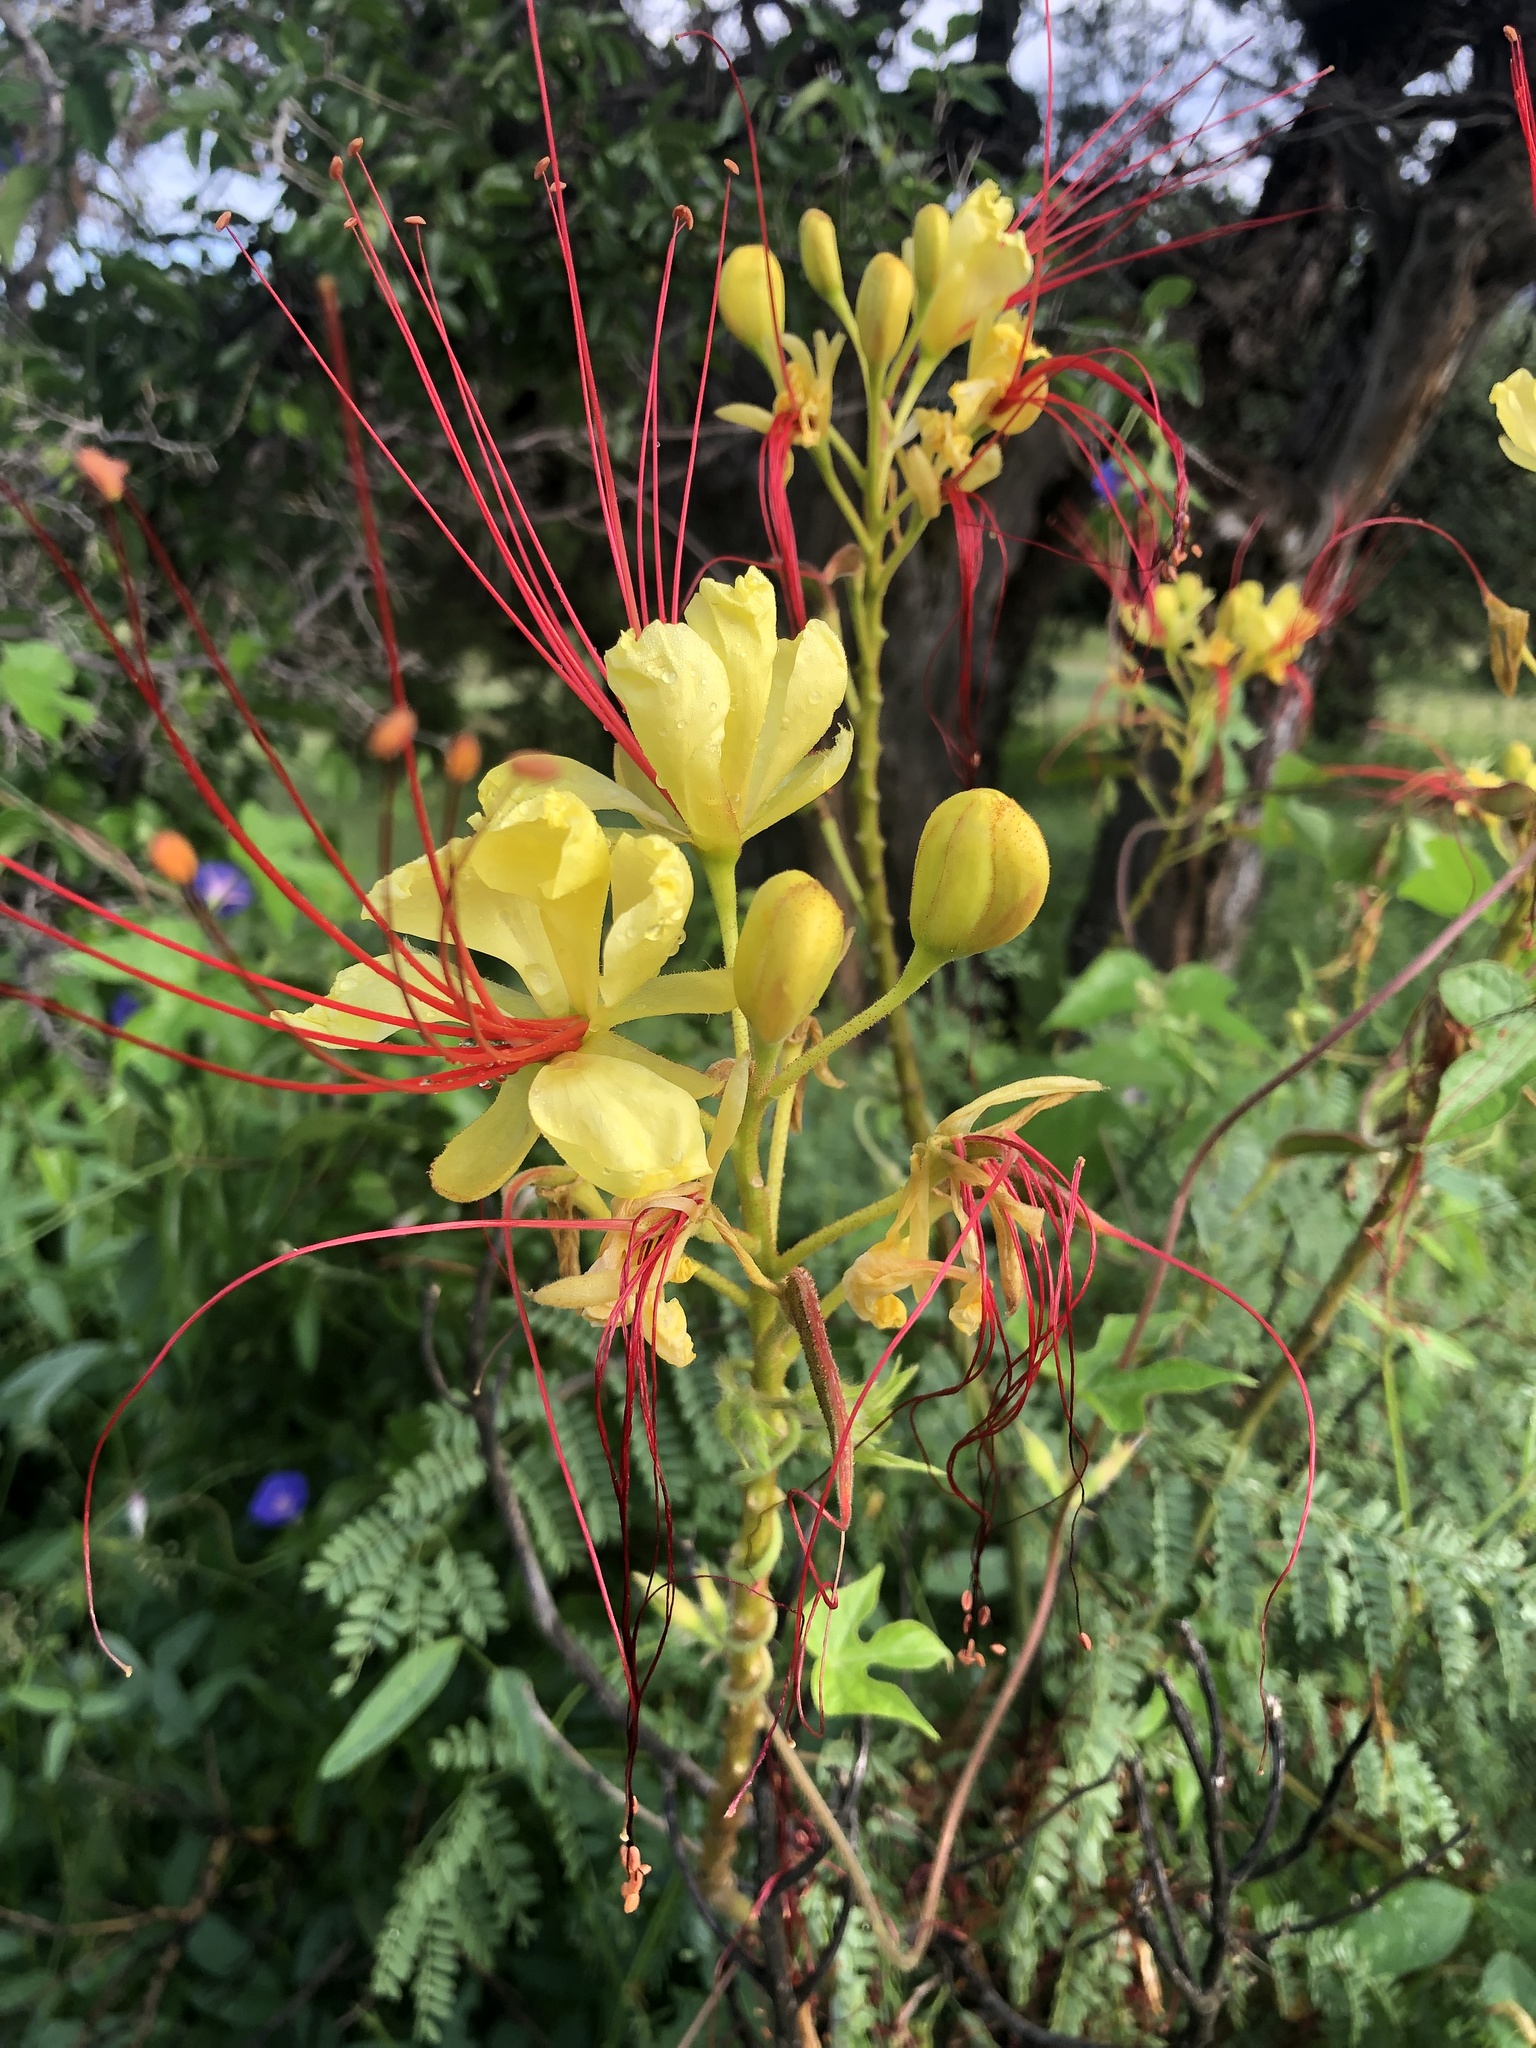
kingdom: Plantae
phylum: Tracheophyta
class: Magnoliopsida
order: Fabales
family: Fabaceae
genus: Erythrostemon
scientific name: Erythrostemon gilliesii
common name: Bird-of-paradise shrub
